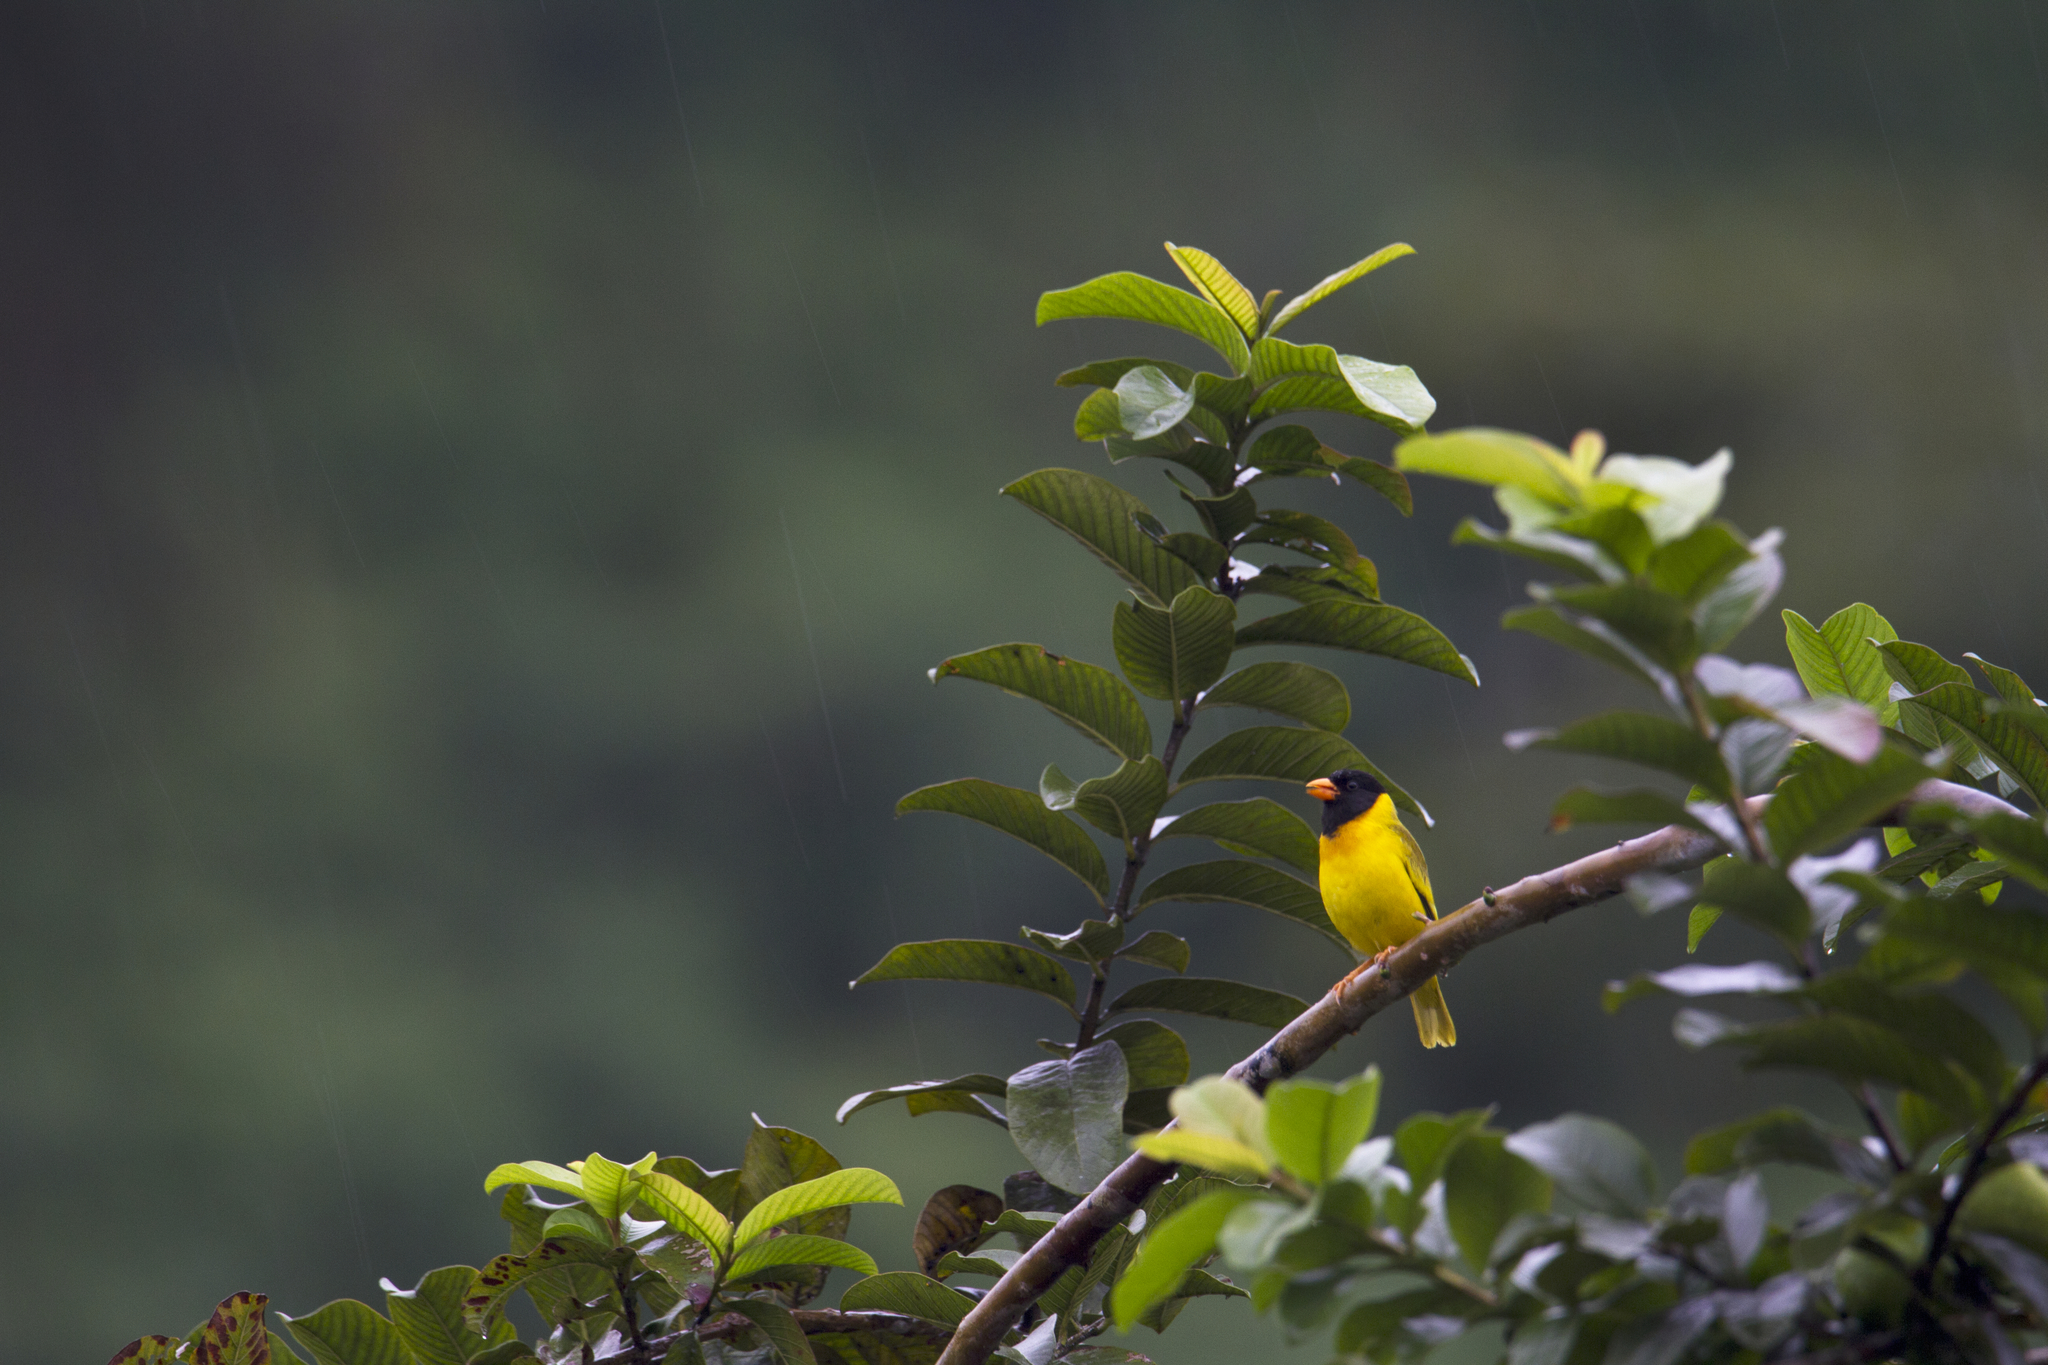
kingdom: Animalia
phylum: Chordata
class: Aves
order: Passeriformes
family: Fringillidae
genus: Linurgus
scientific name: Linurgus olivaceus
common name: Oriole finch
